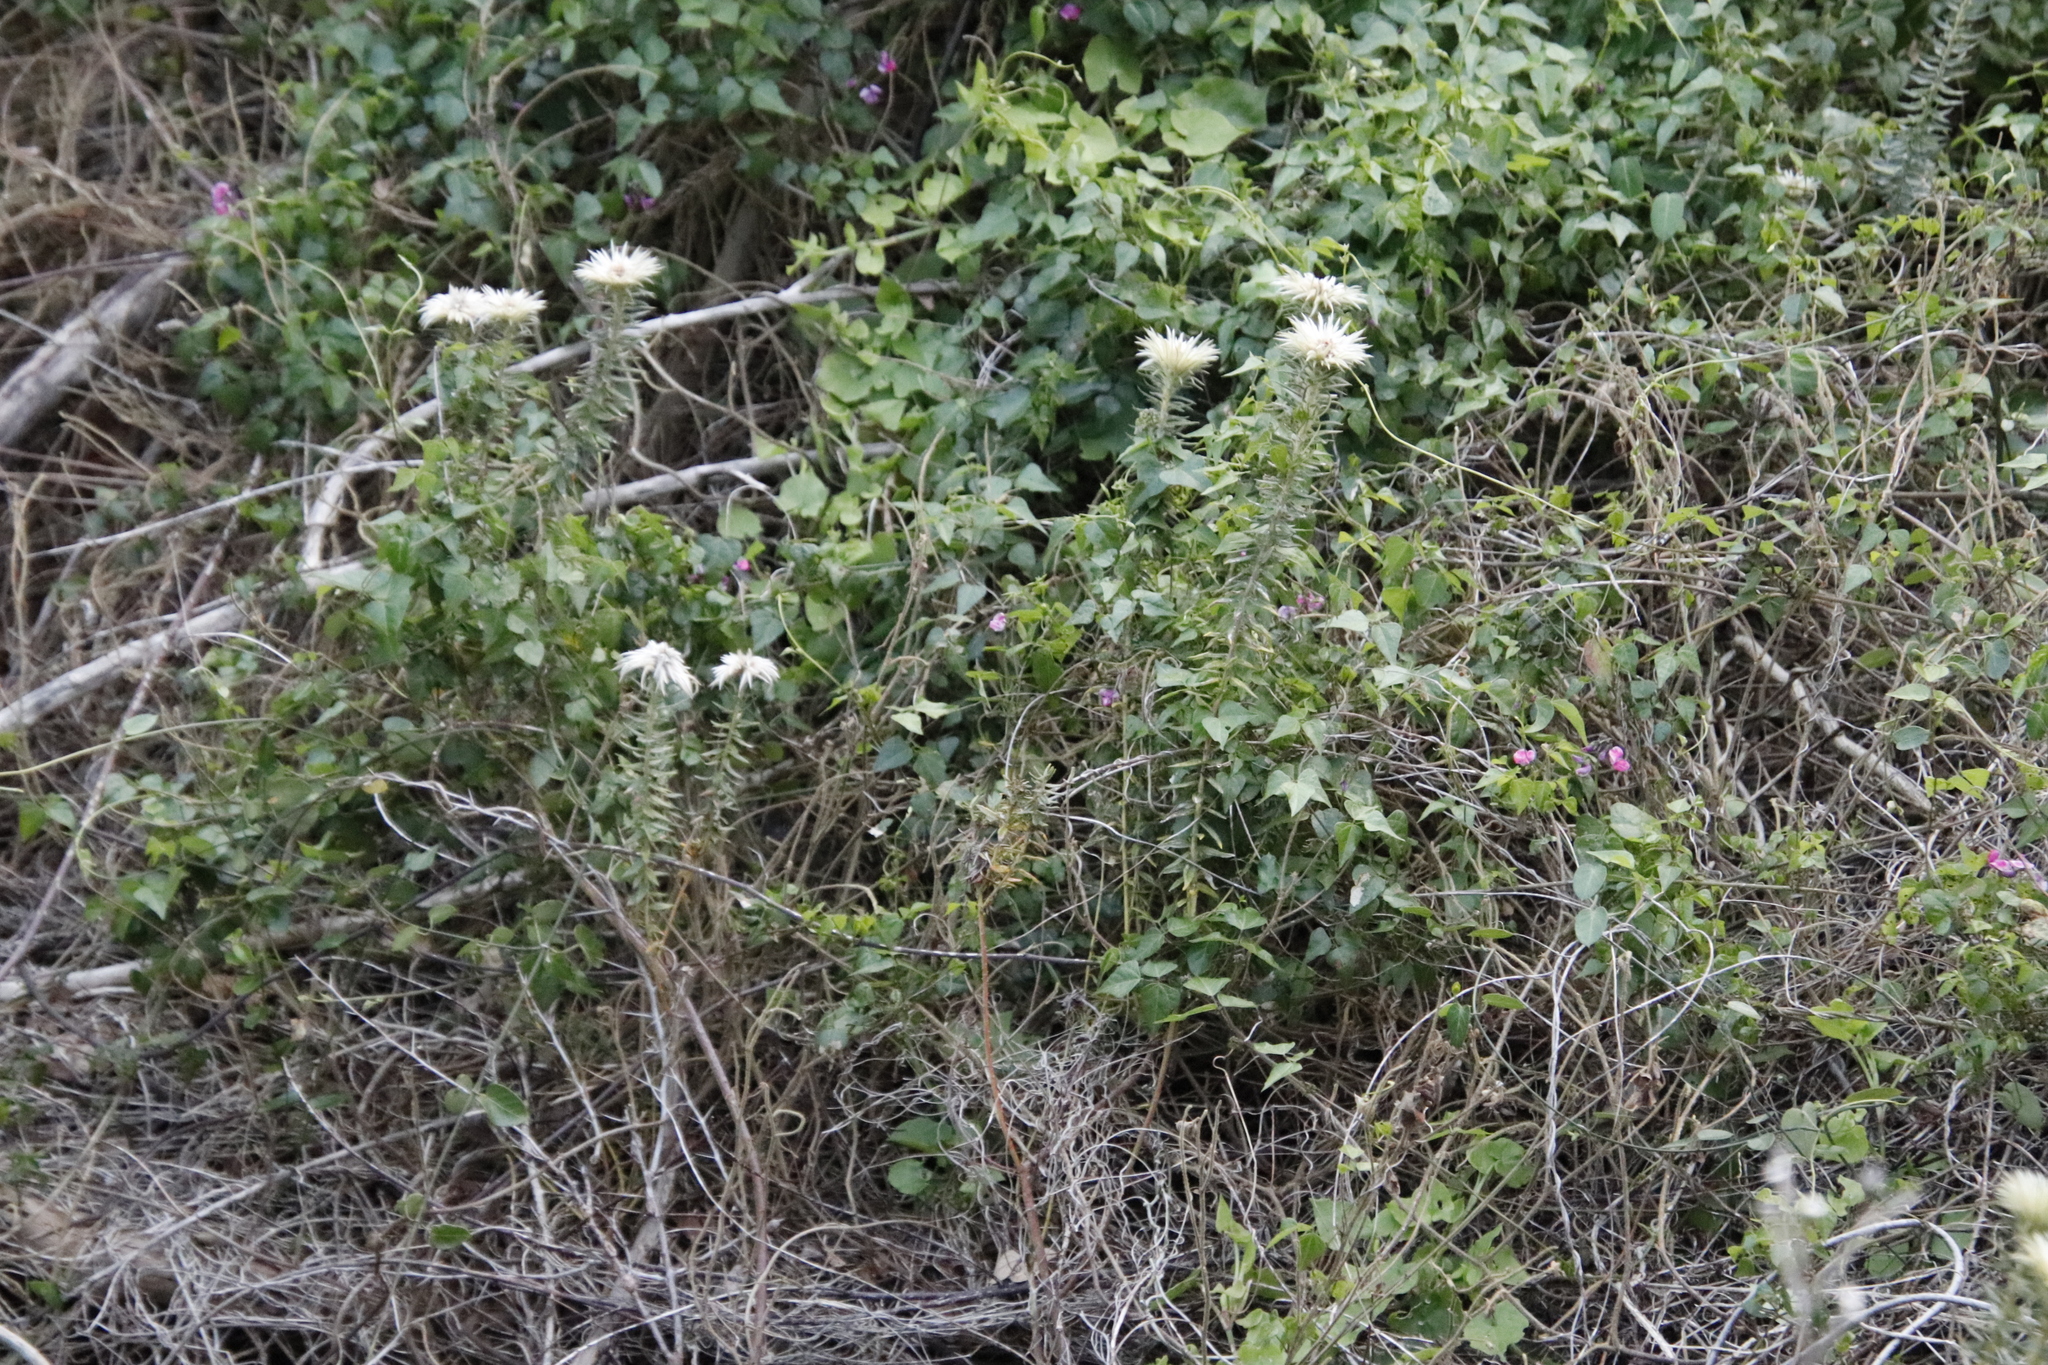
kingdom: Plantae
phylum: Tracheophyta
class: Magnoliopsida
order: Rosales
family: Rhamnaceae
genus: Phylica
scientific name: Phylica pubescens
